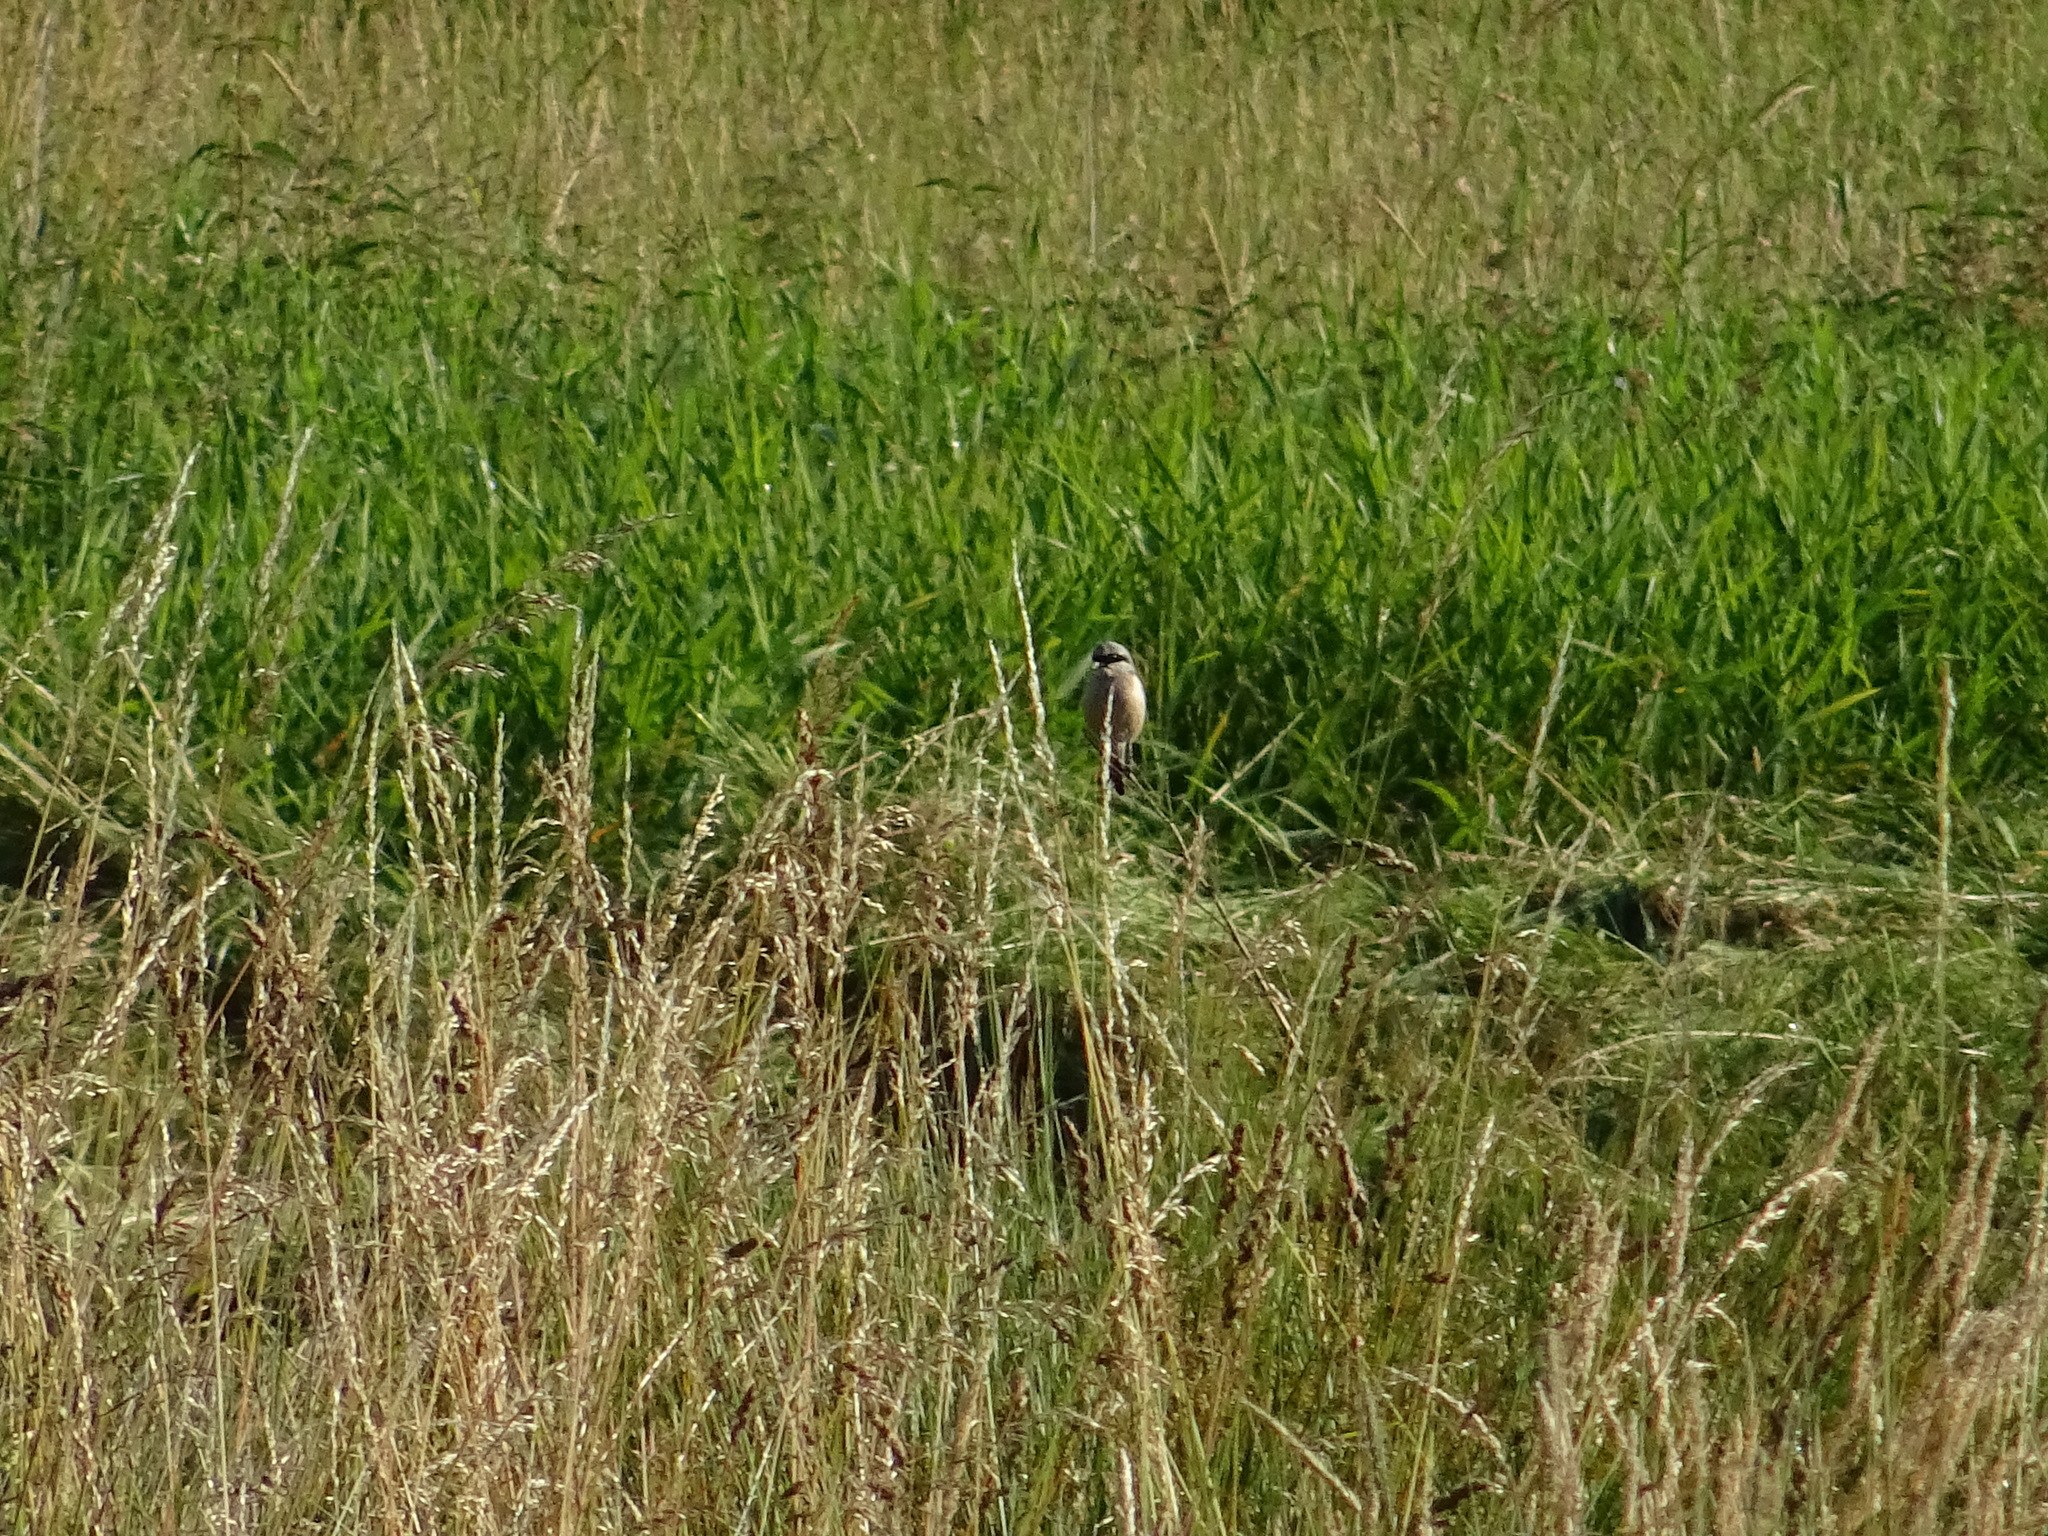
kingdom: Animalia
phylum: Chordata
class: Aves
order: Passeriformes
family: Laniidae
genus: Lanius
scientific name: Lanius collurio
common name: Red-backed shrike
